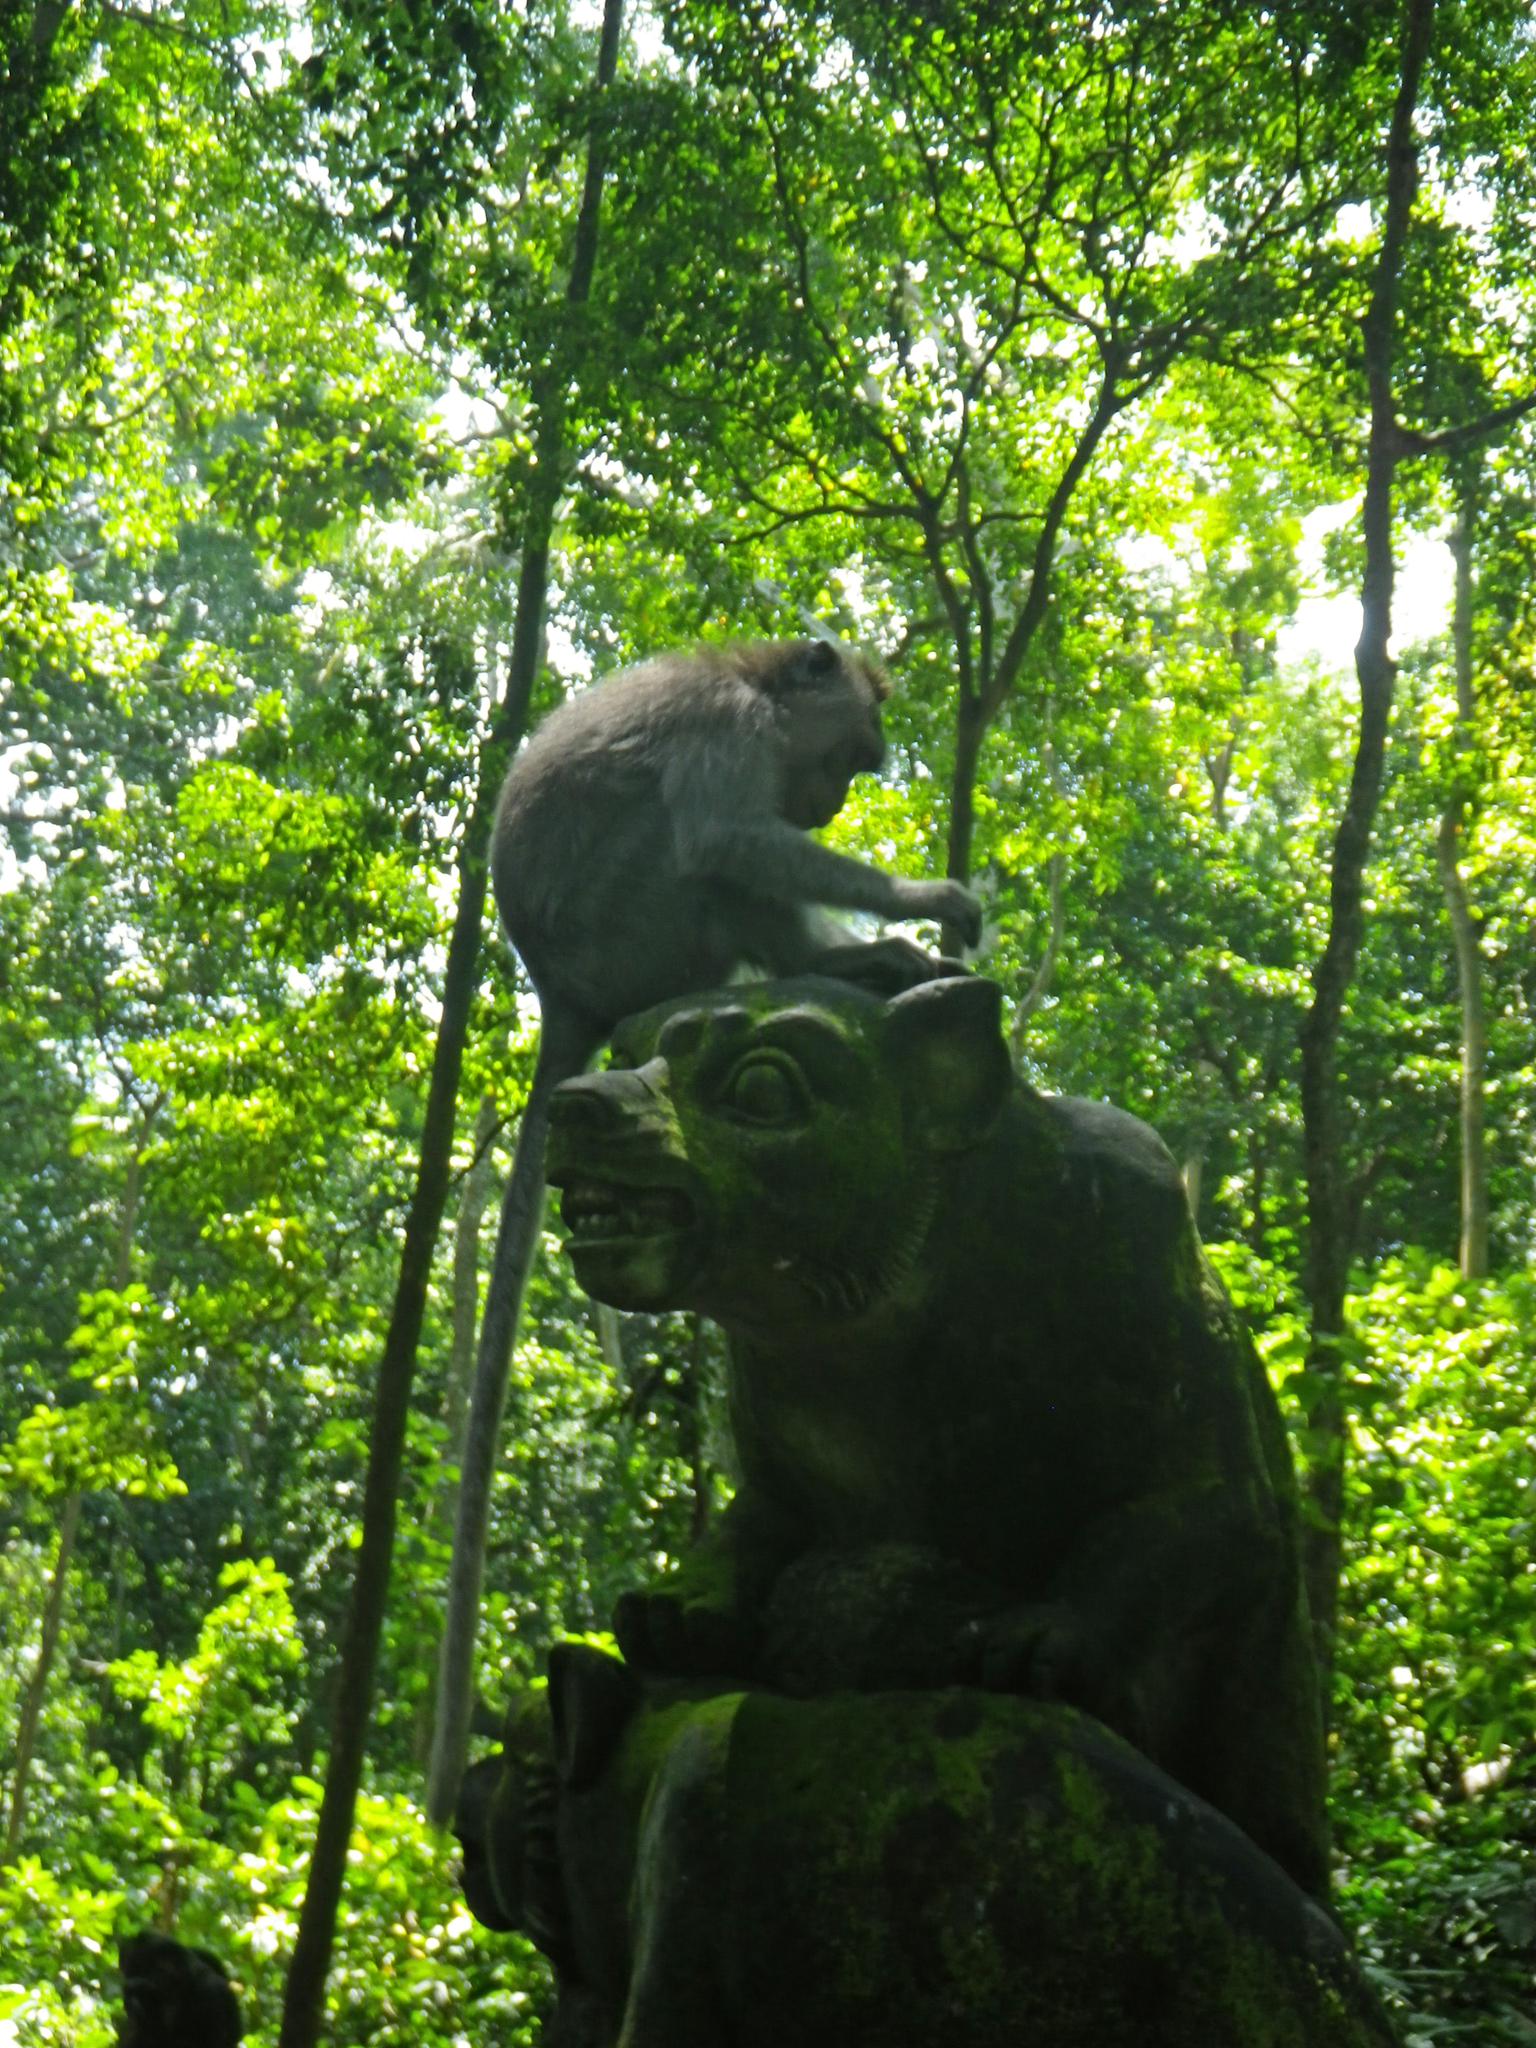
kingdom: Animalia
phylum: Chordata
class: Mammalia
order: Primates
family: Cercopithecidae
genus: Macaca
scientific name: Macaca fascicularis
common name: Crab-eating macaque
